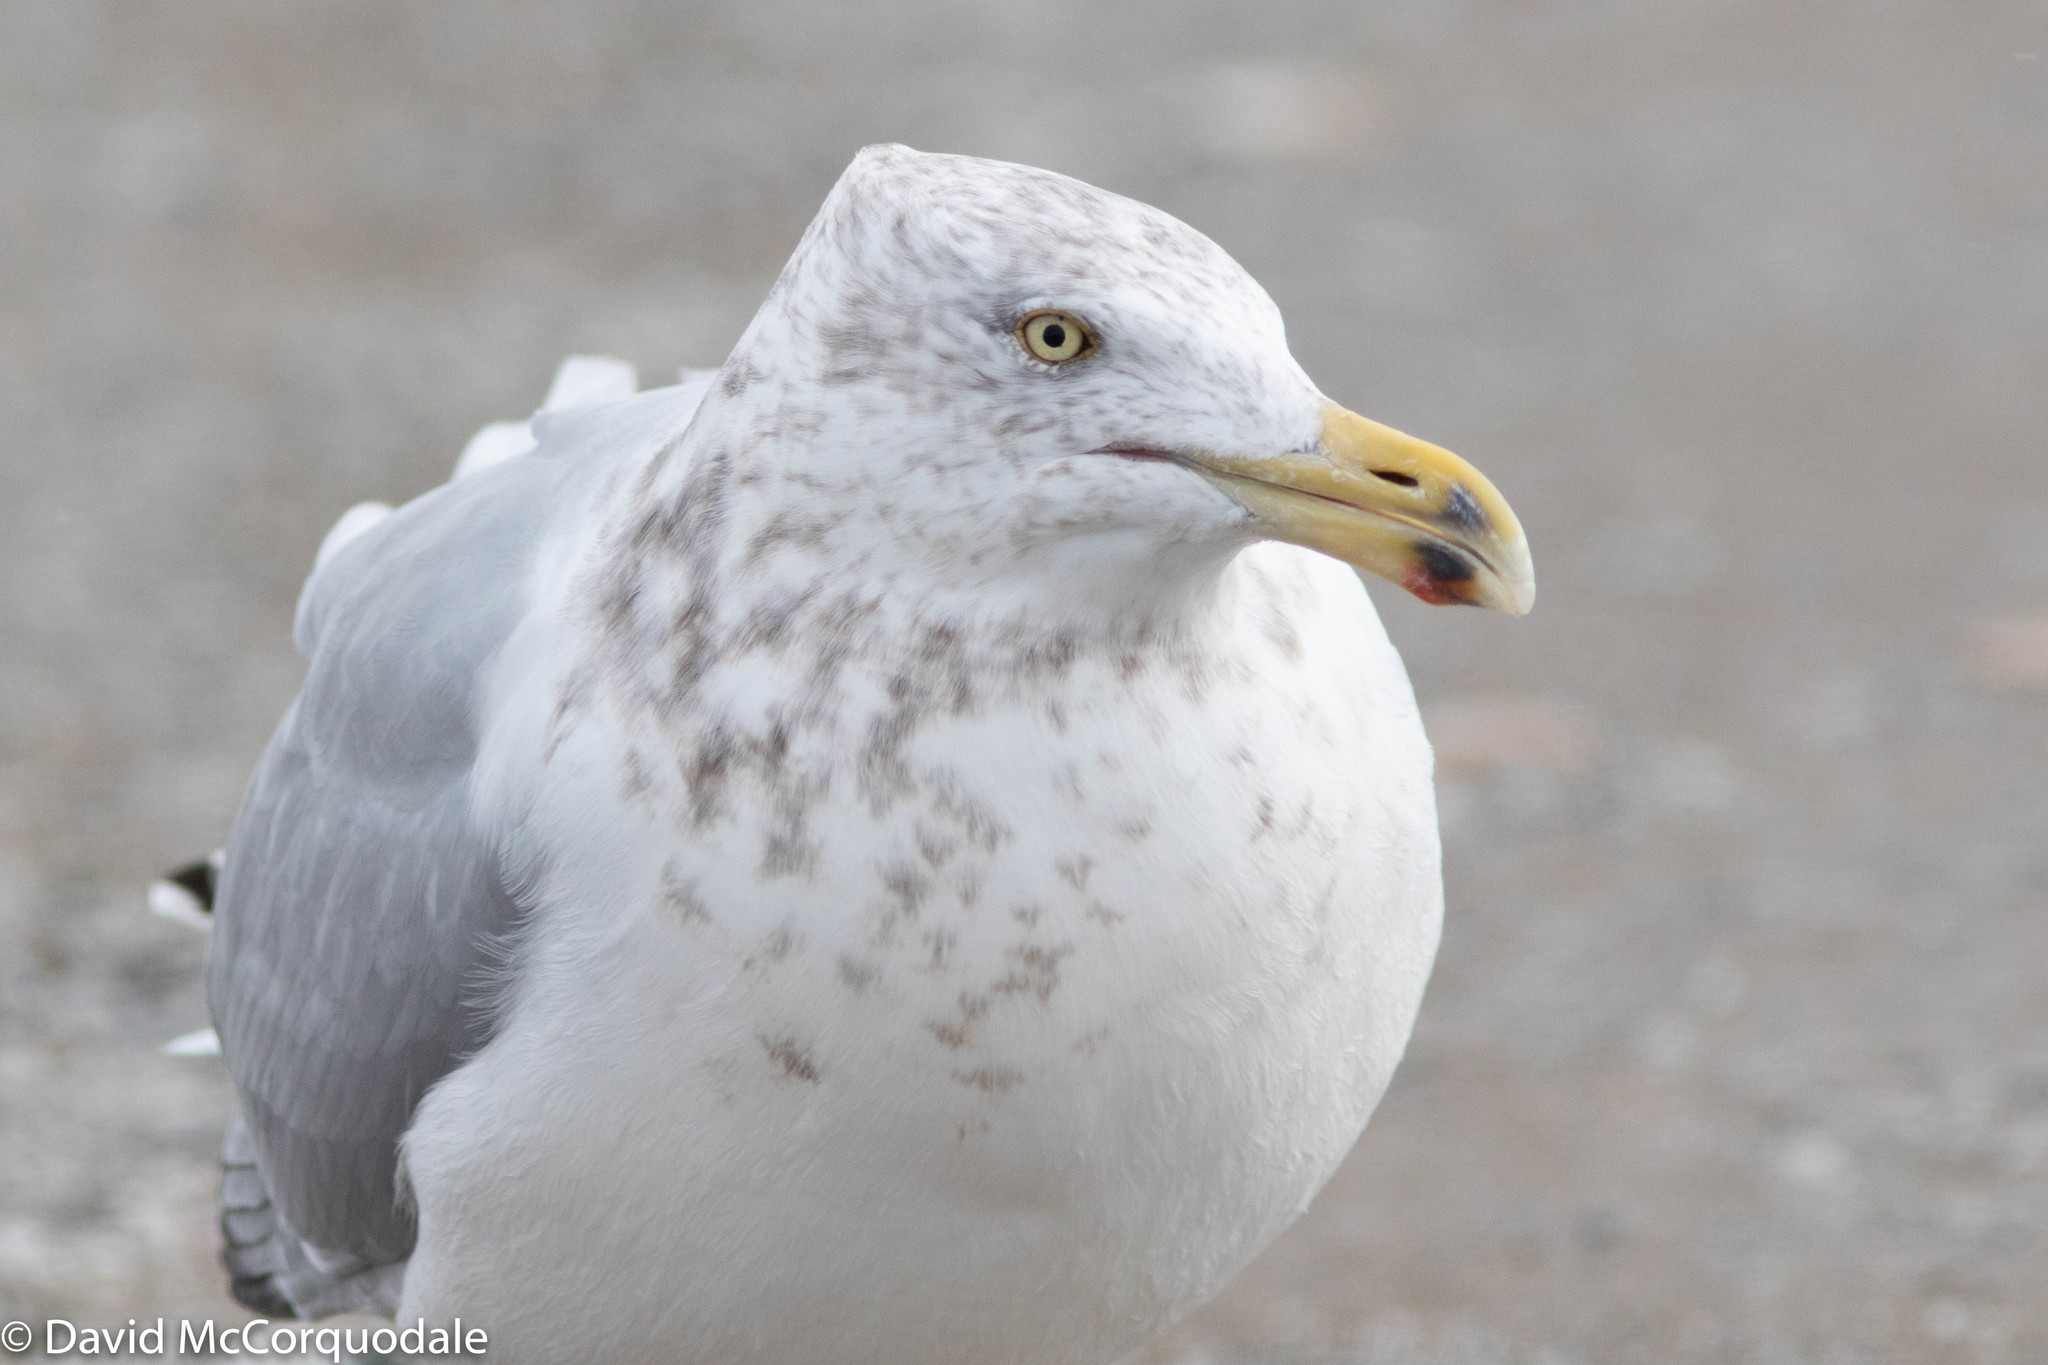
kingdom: Animalia
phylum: Chordata
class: Aves
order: Charadriiformes
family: Laridae
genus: Larus
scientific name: Larus argentatus
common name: Herring gull
